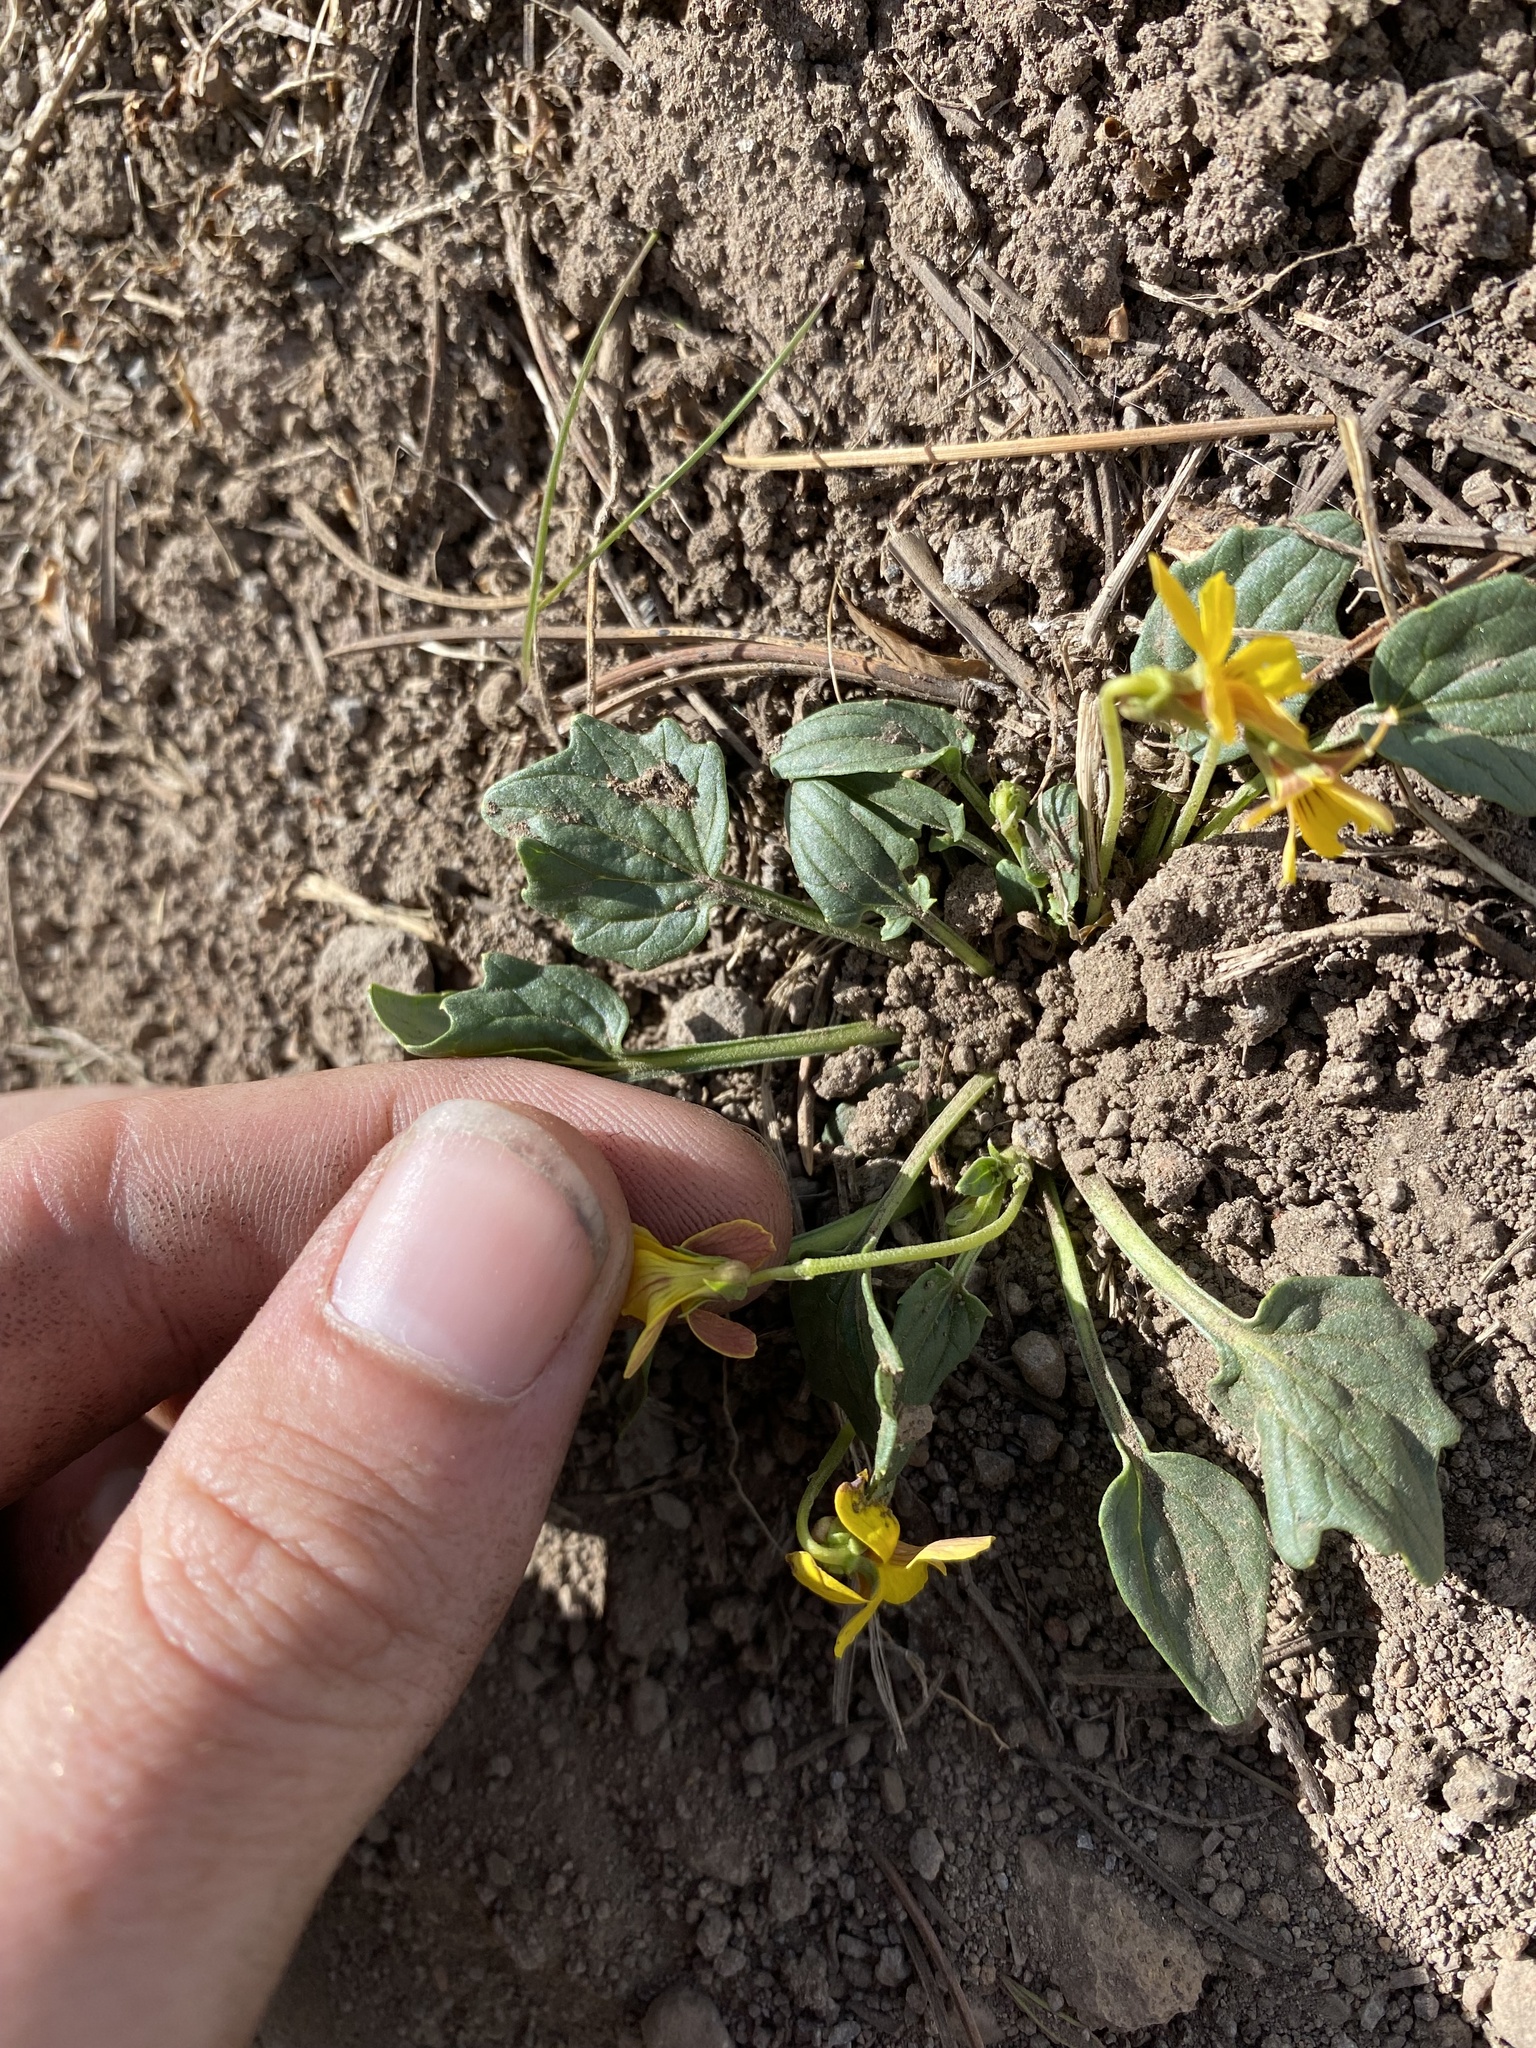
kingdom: Plantae
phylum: Tracheophyta
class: Magnoliopsida
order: Malpighiales
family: Violaceae
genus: Viola
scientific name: Viola purpurea
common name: Pine violet
